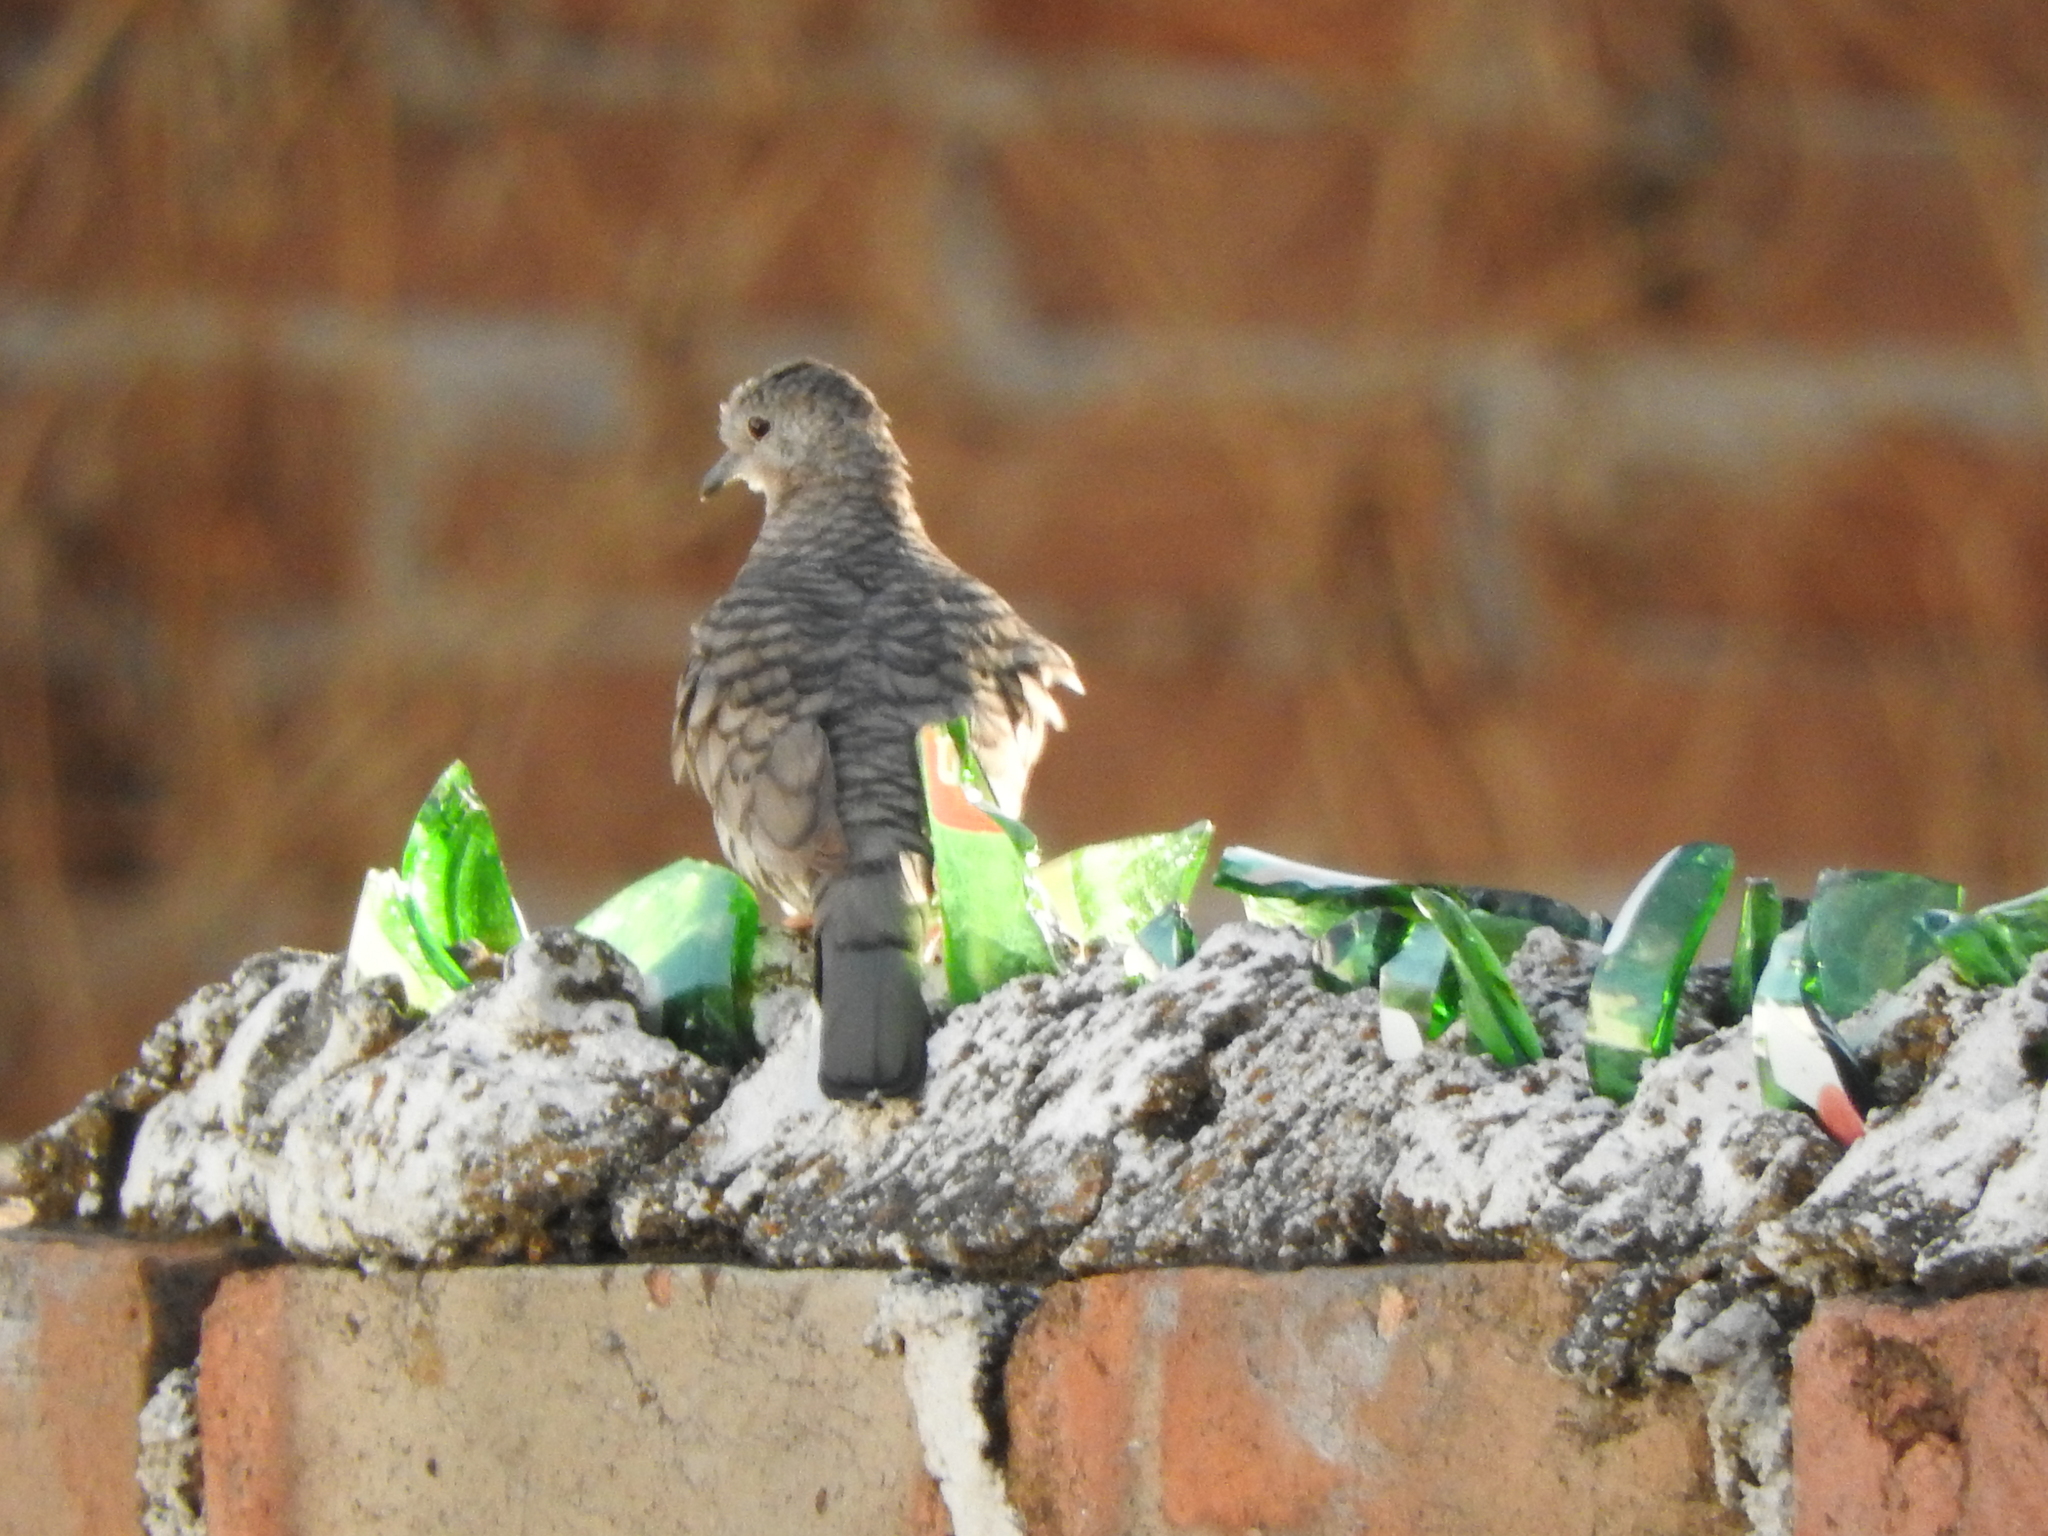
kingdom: Animalia
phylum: Chordata
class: Aves
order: Columbiformes
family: Columbidae
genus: Columbina
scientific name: Columbina inca
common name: Inca dove
